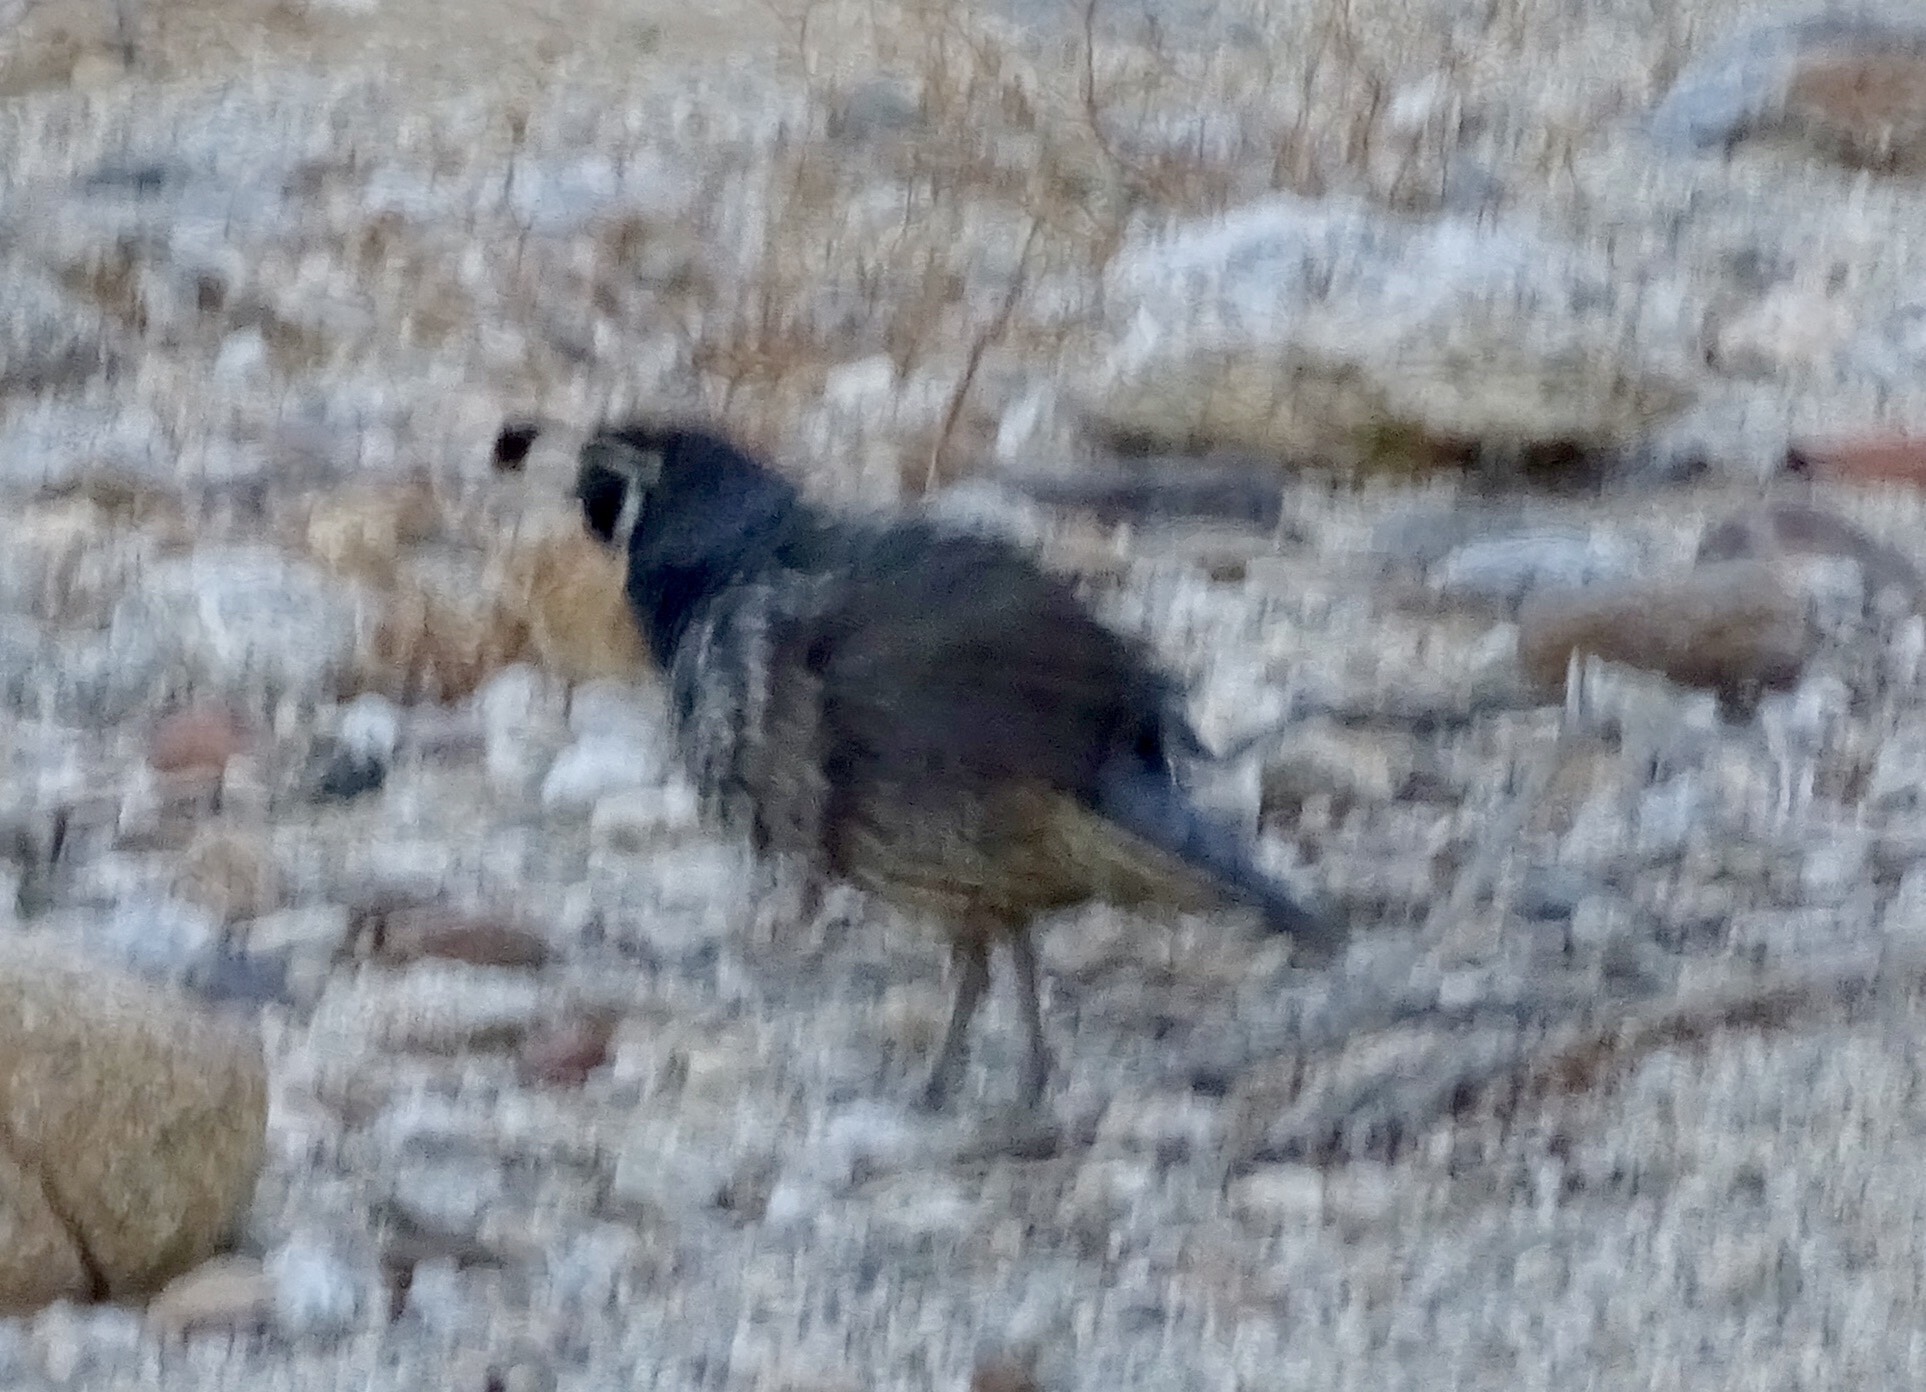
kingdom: Animalia
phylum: Chordata
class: Aves
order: Galliformes
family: Odontophoridae
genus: Callipepla
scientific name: Callipepla californica
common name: California quail
